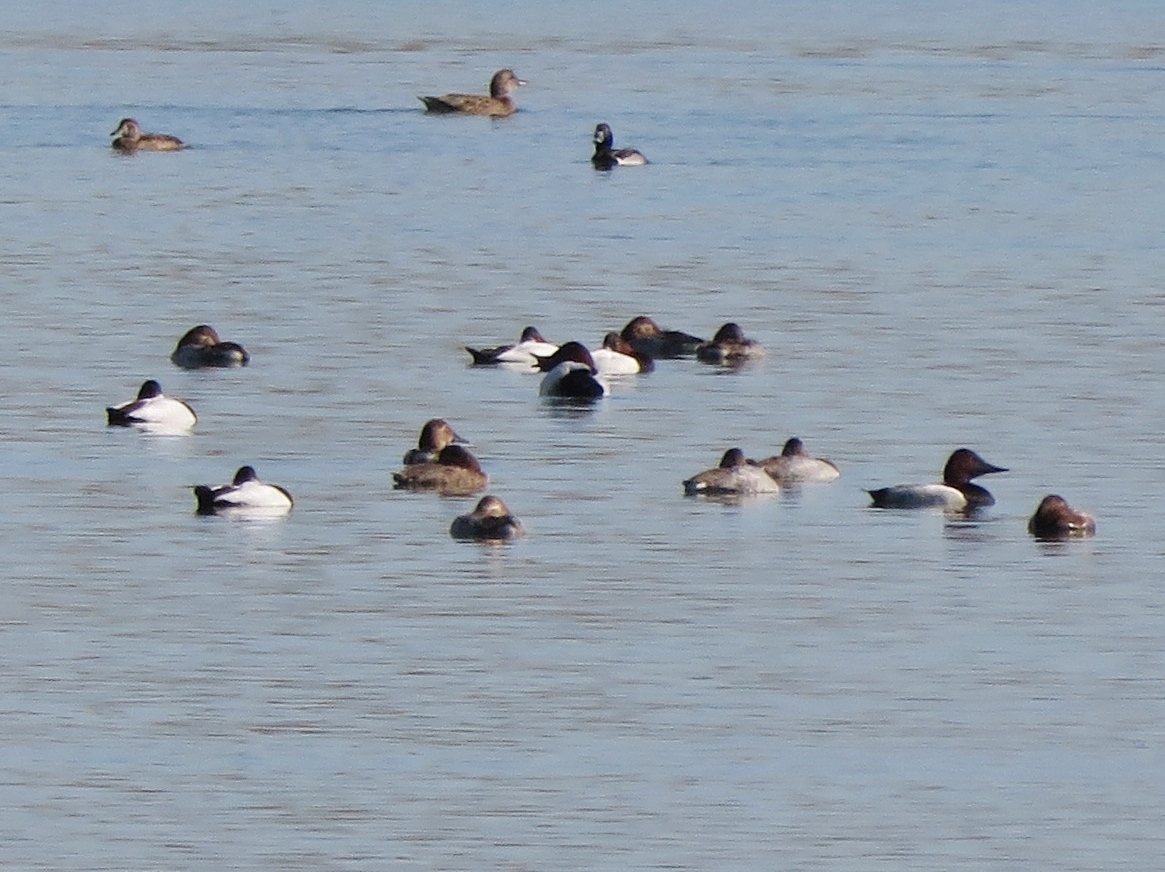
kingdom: Animalia
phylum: Chordata
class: Aves
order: Anseriformes
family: Anatidae
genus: Aythya
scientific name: Aythya valisineria
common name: Canvasback
